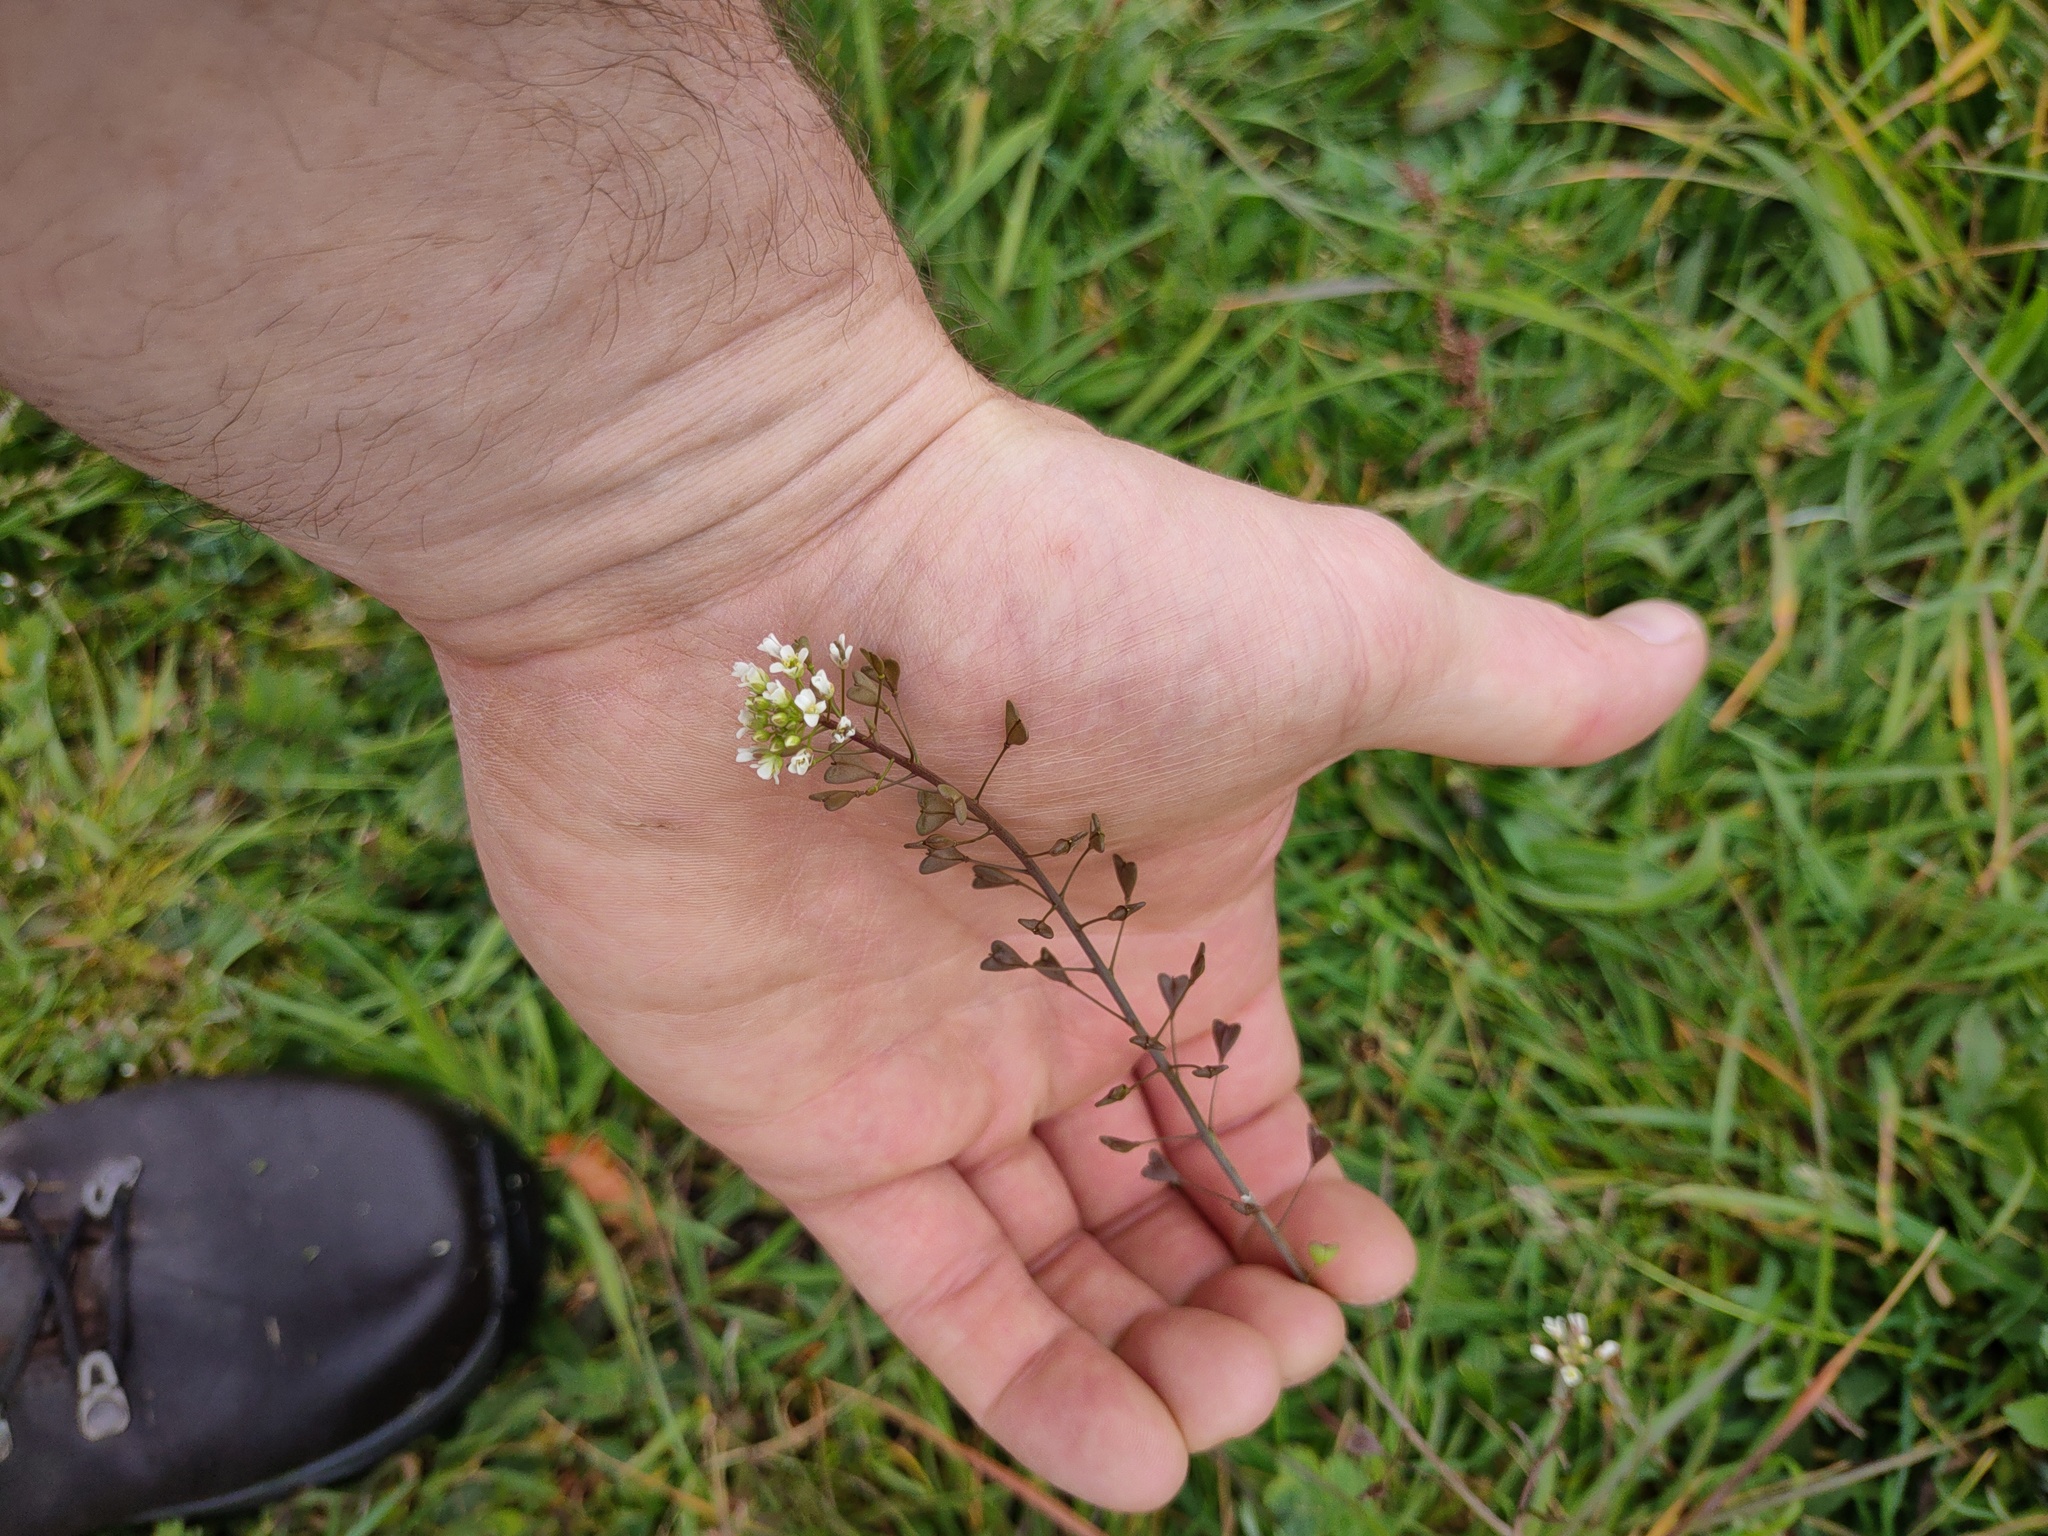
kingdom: Plantae
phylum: Tracheophyta
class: Magnoliopsida
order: Brassicales
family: Brassicaceae
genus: Capsella
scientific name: Capsella bursa-pastoris
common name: Shepherd's purse
